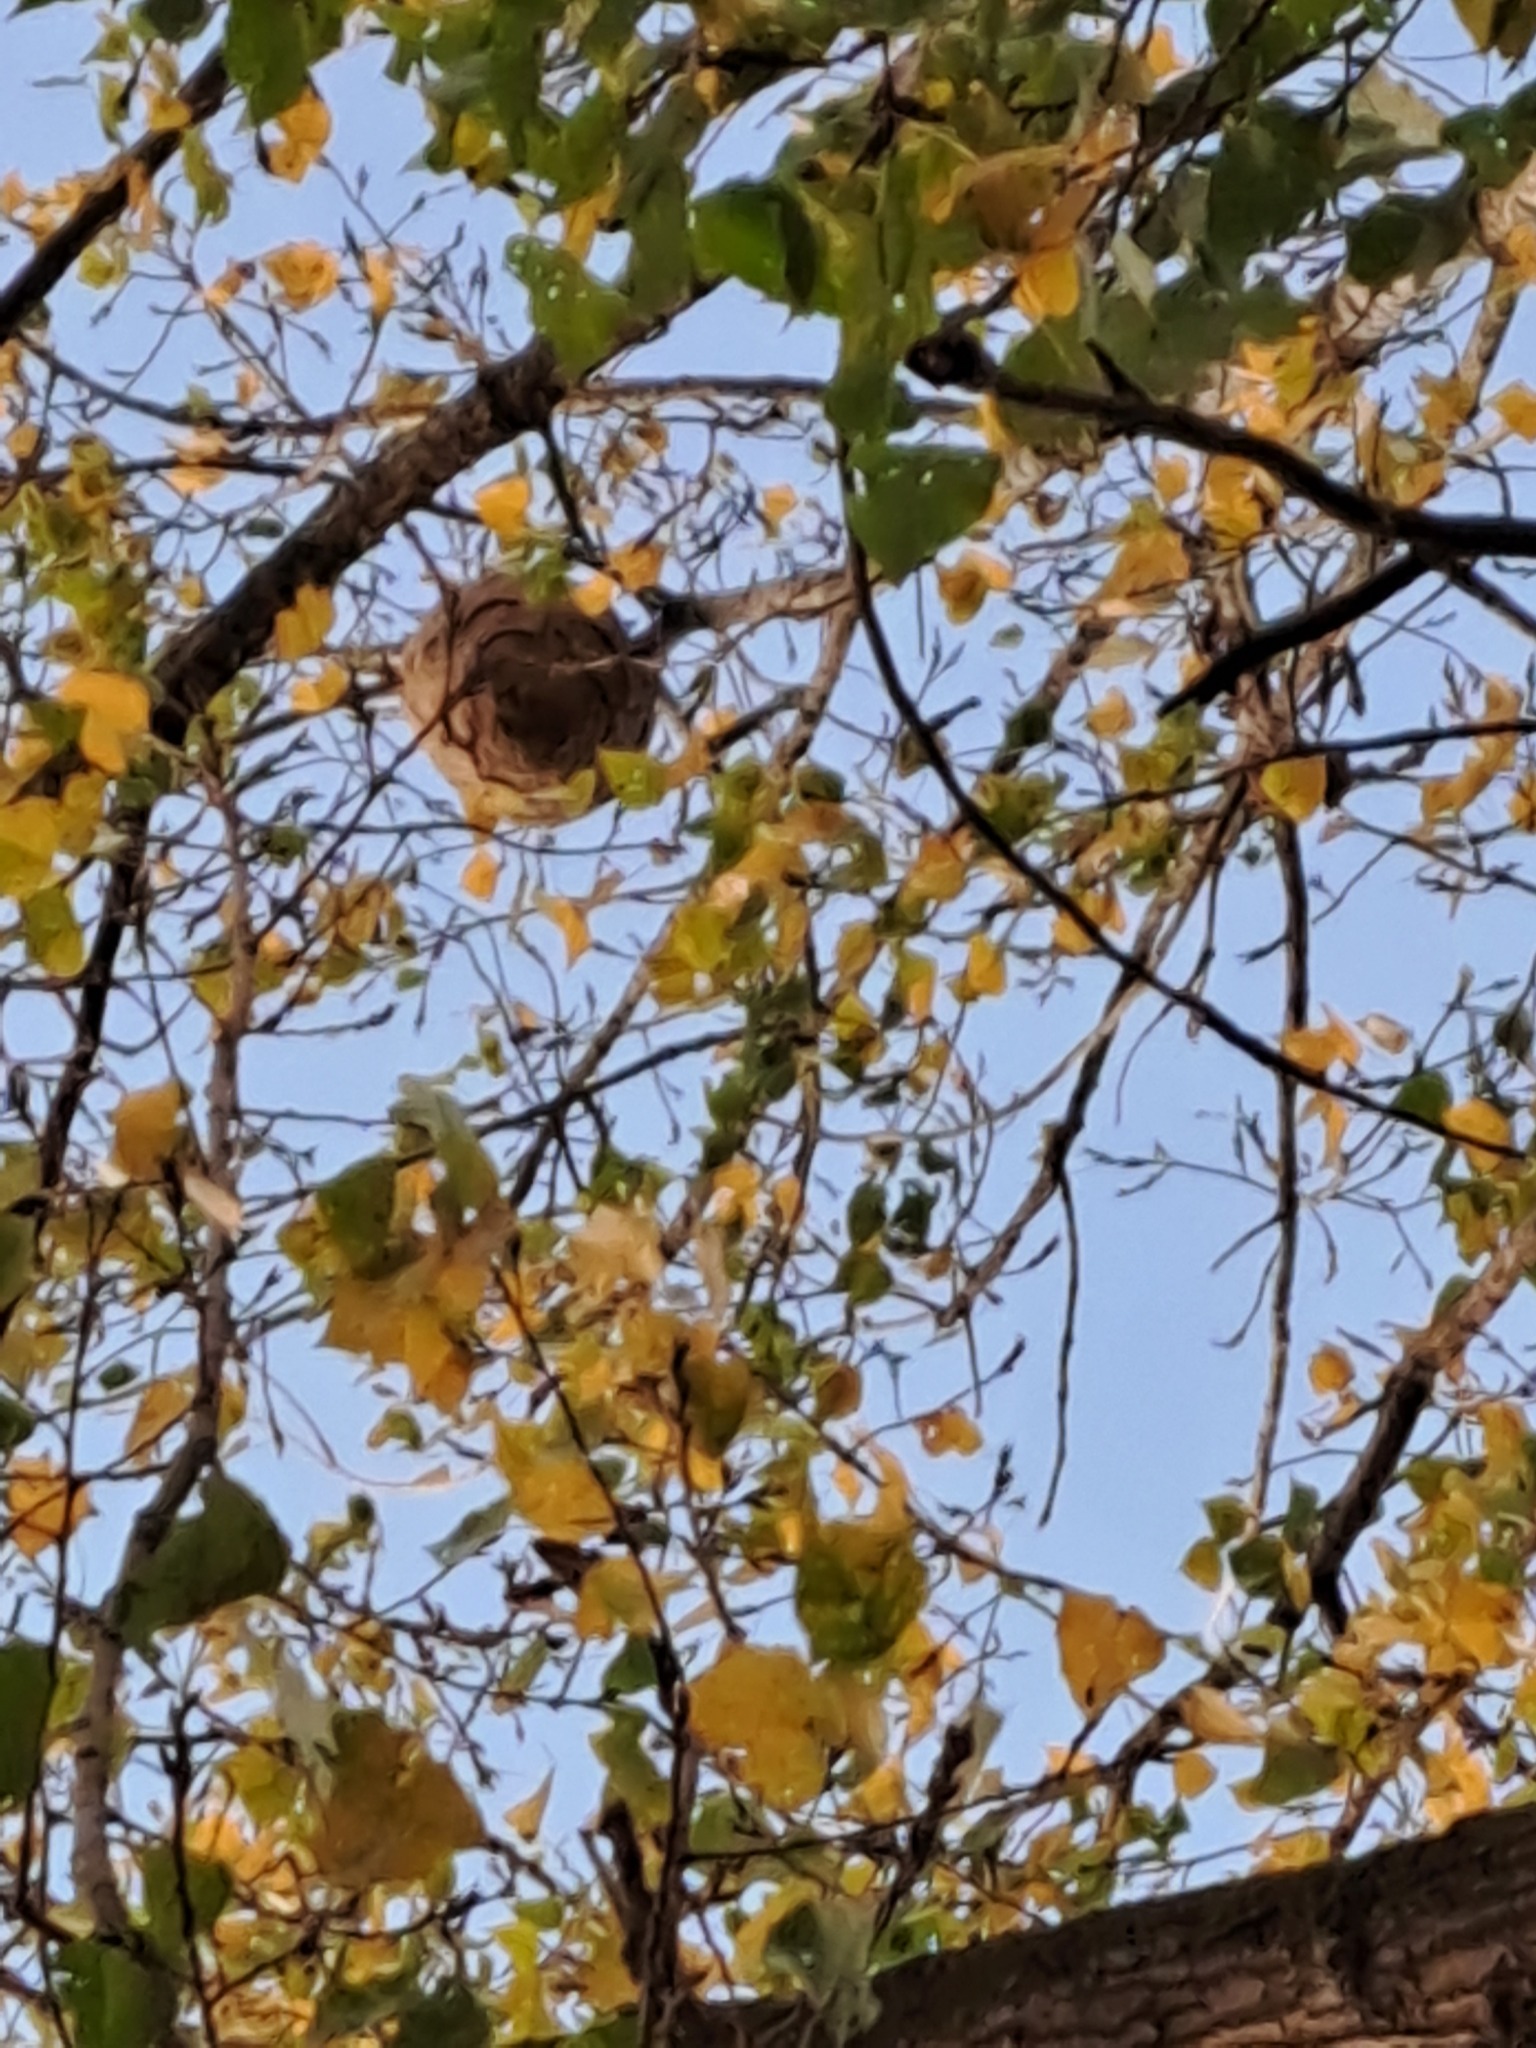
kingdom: Animalia
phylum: Arthropoda
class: Insecta
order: Hymenoptera
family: Vespidae
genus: Vespa
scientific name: Vespa velutina
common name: Asian hornet
